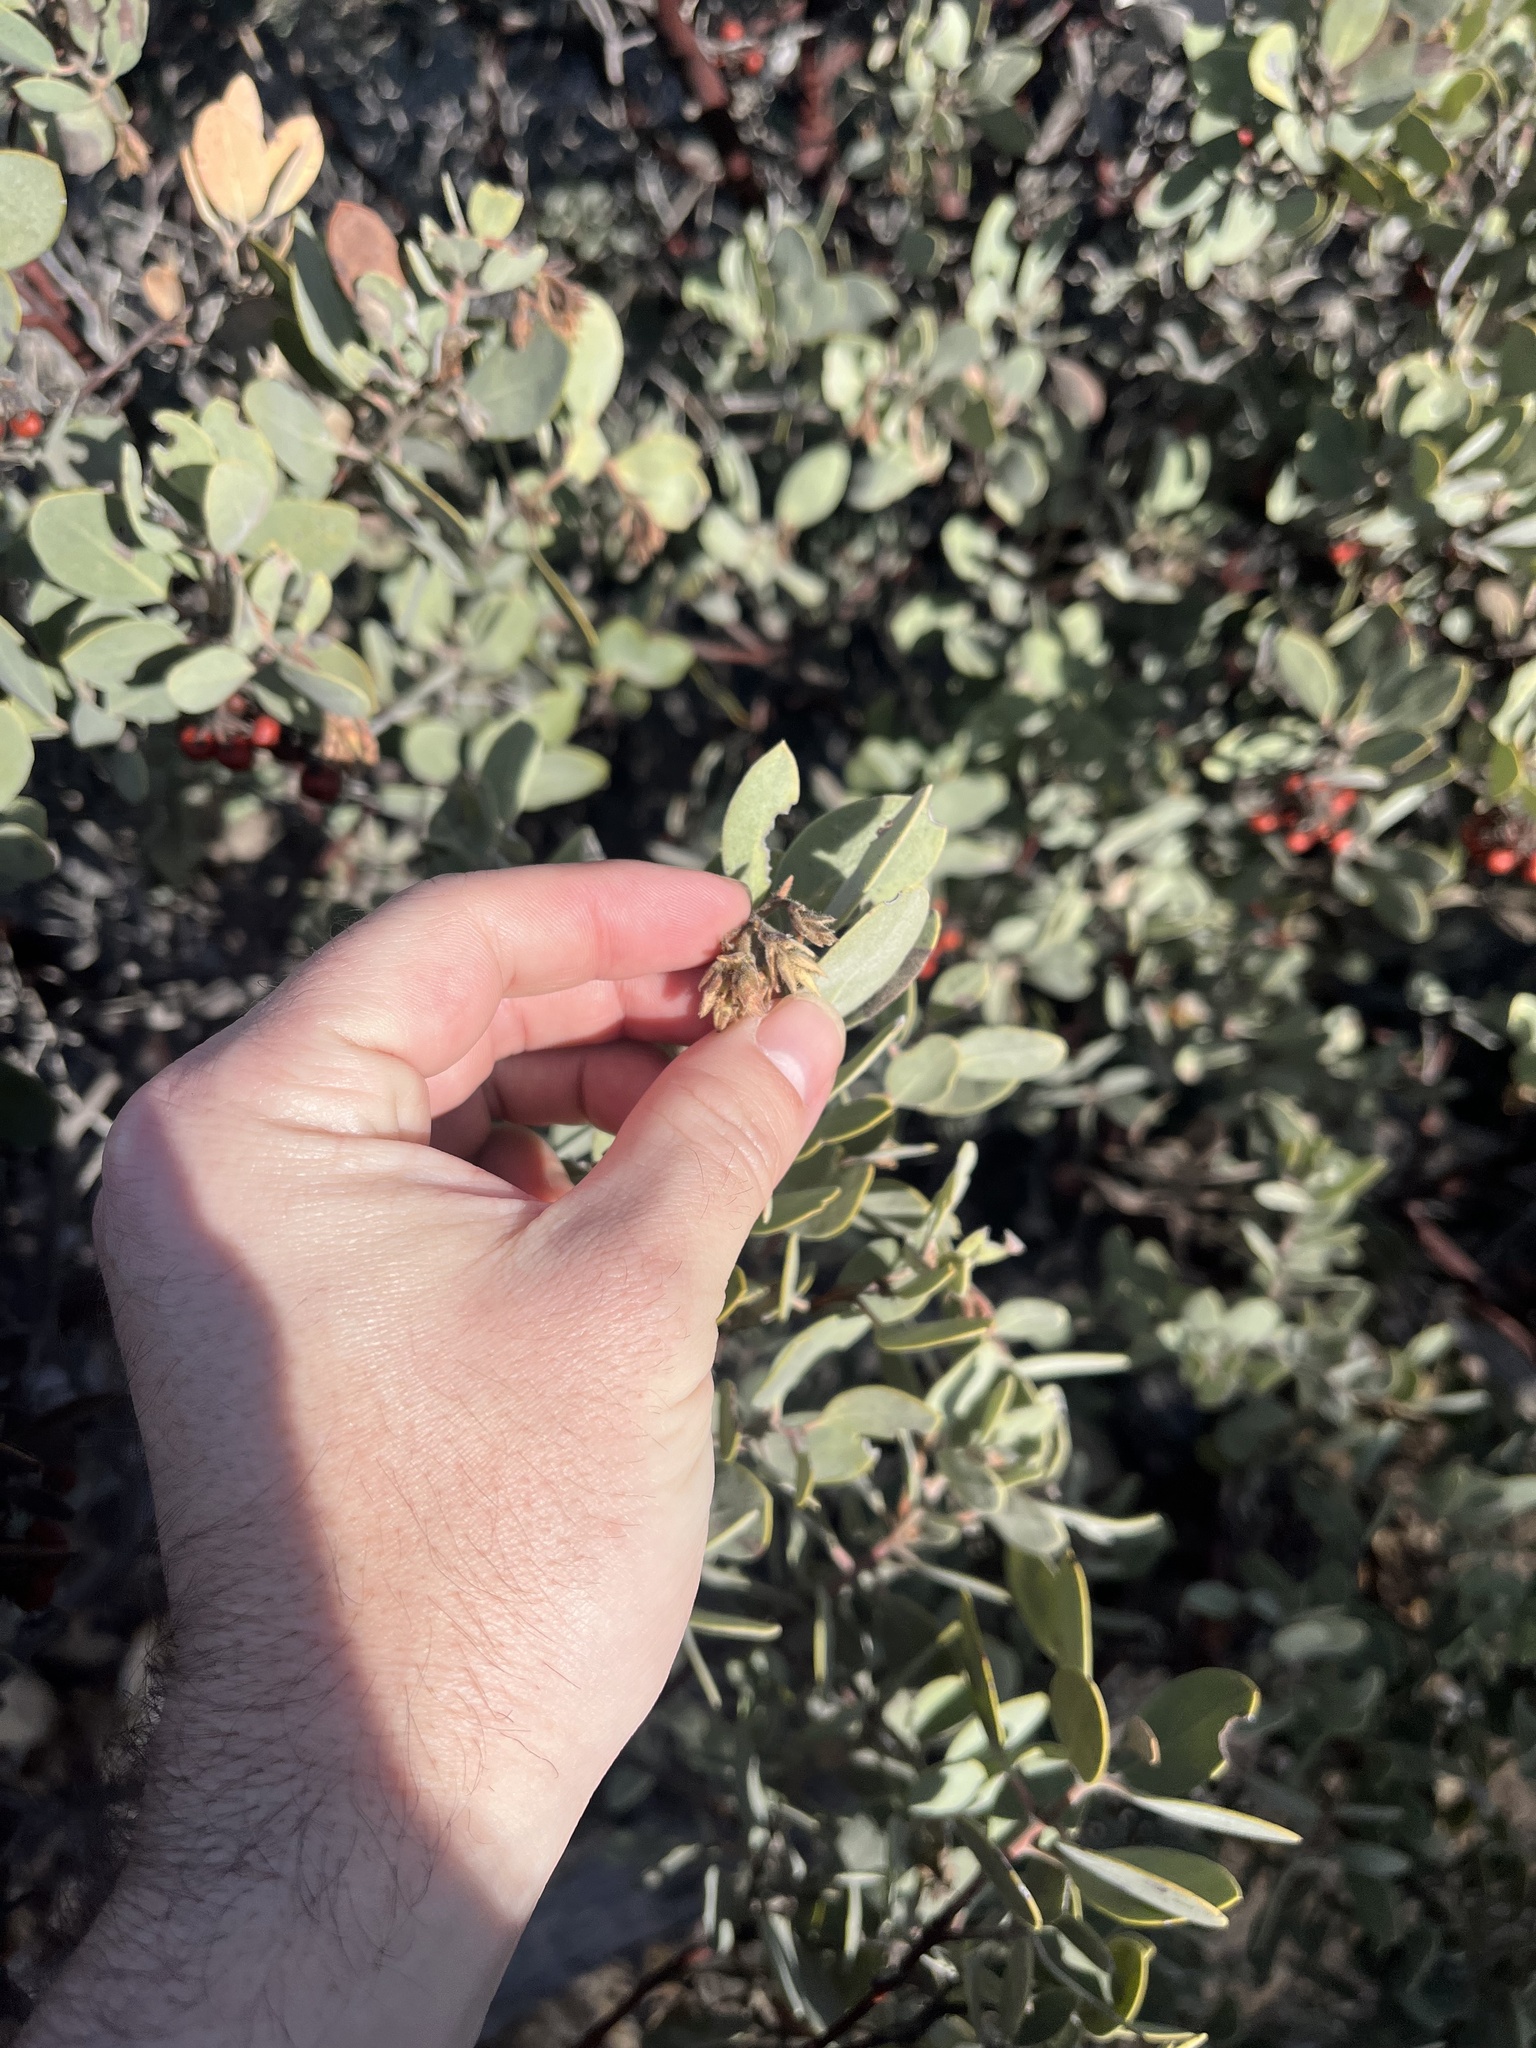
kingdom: Plantae
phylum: Tracheophyta
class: Magnoliopsida
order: Ericales
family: Ericaceae
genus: Arctostaphylos
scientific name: Arctostaphylos glandulosa
